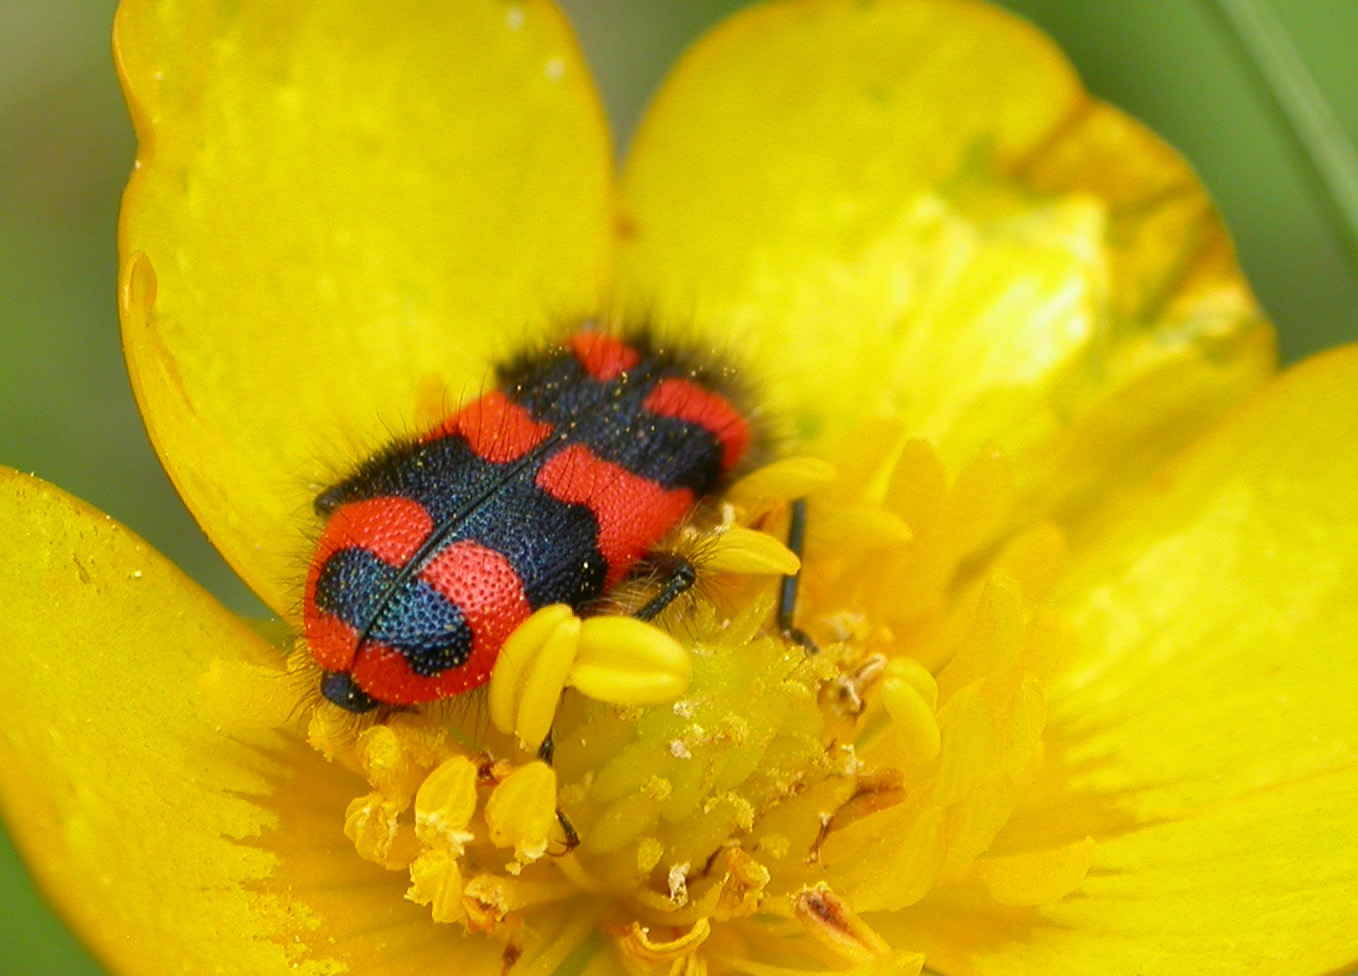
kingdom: Animalia
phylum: Arthropoda
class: Insecta
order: Coleoptera
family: Cleridae
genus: Trichodes
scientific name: Trichodes alvearius
